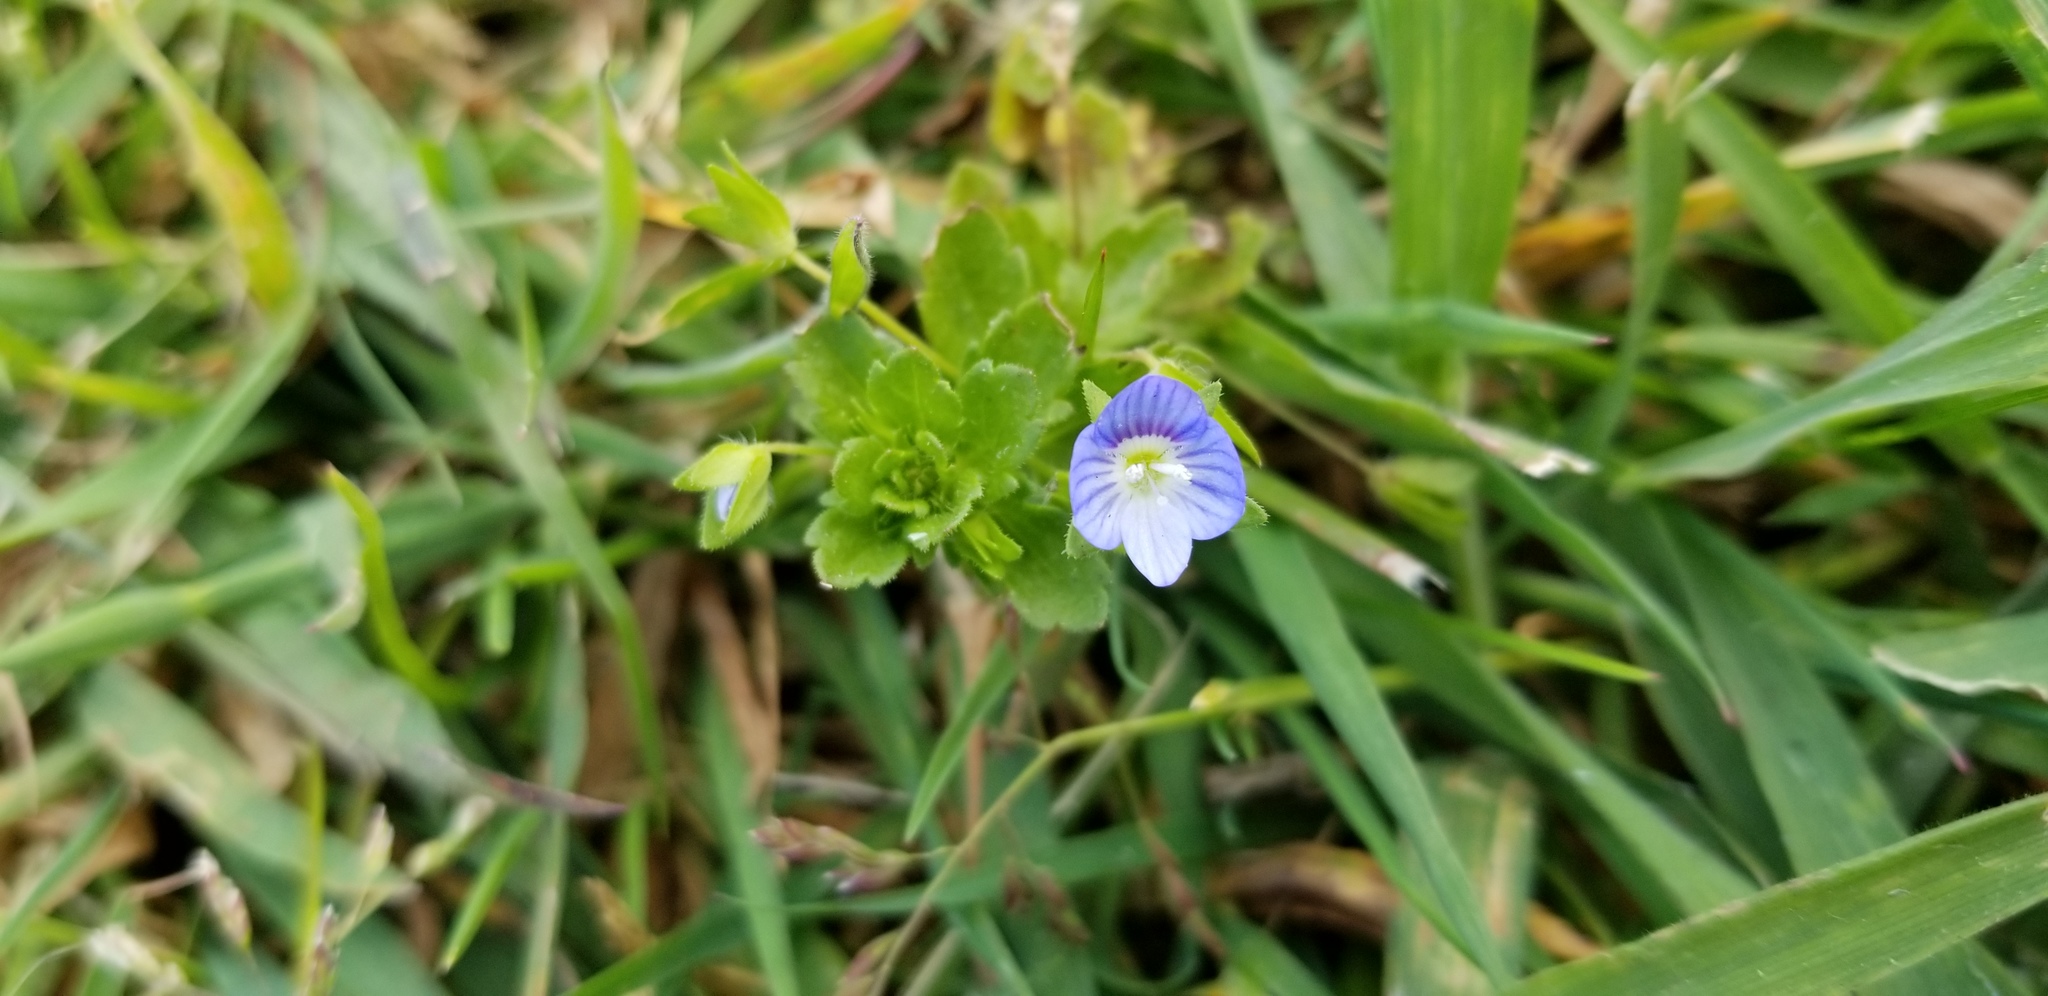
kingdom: Plantae
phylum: Tracheophyta
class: Magnoliopsida
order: Lamiales
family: Plantaginaceae
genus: Veronica
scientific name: Veronica persica
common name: Common field-speedwell
